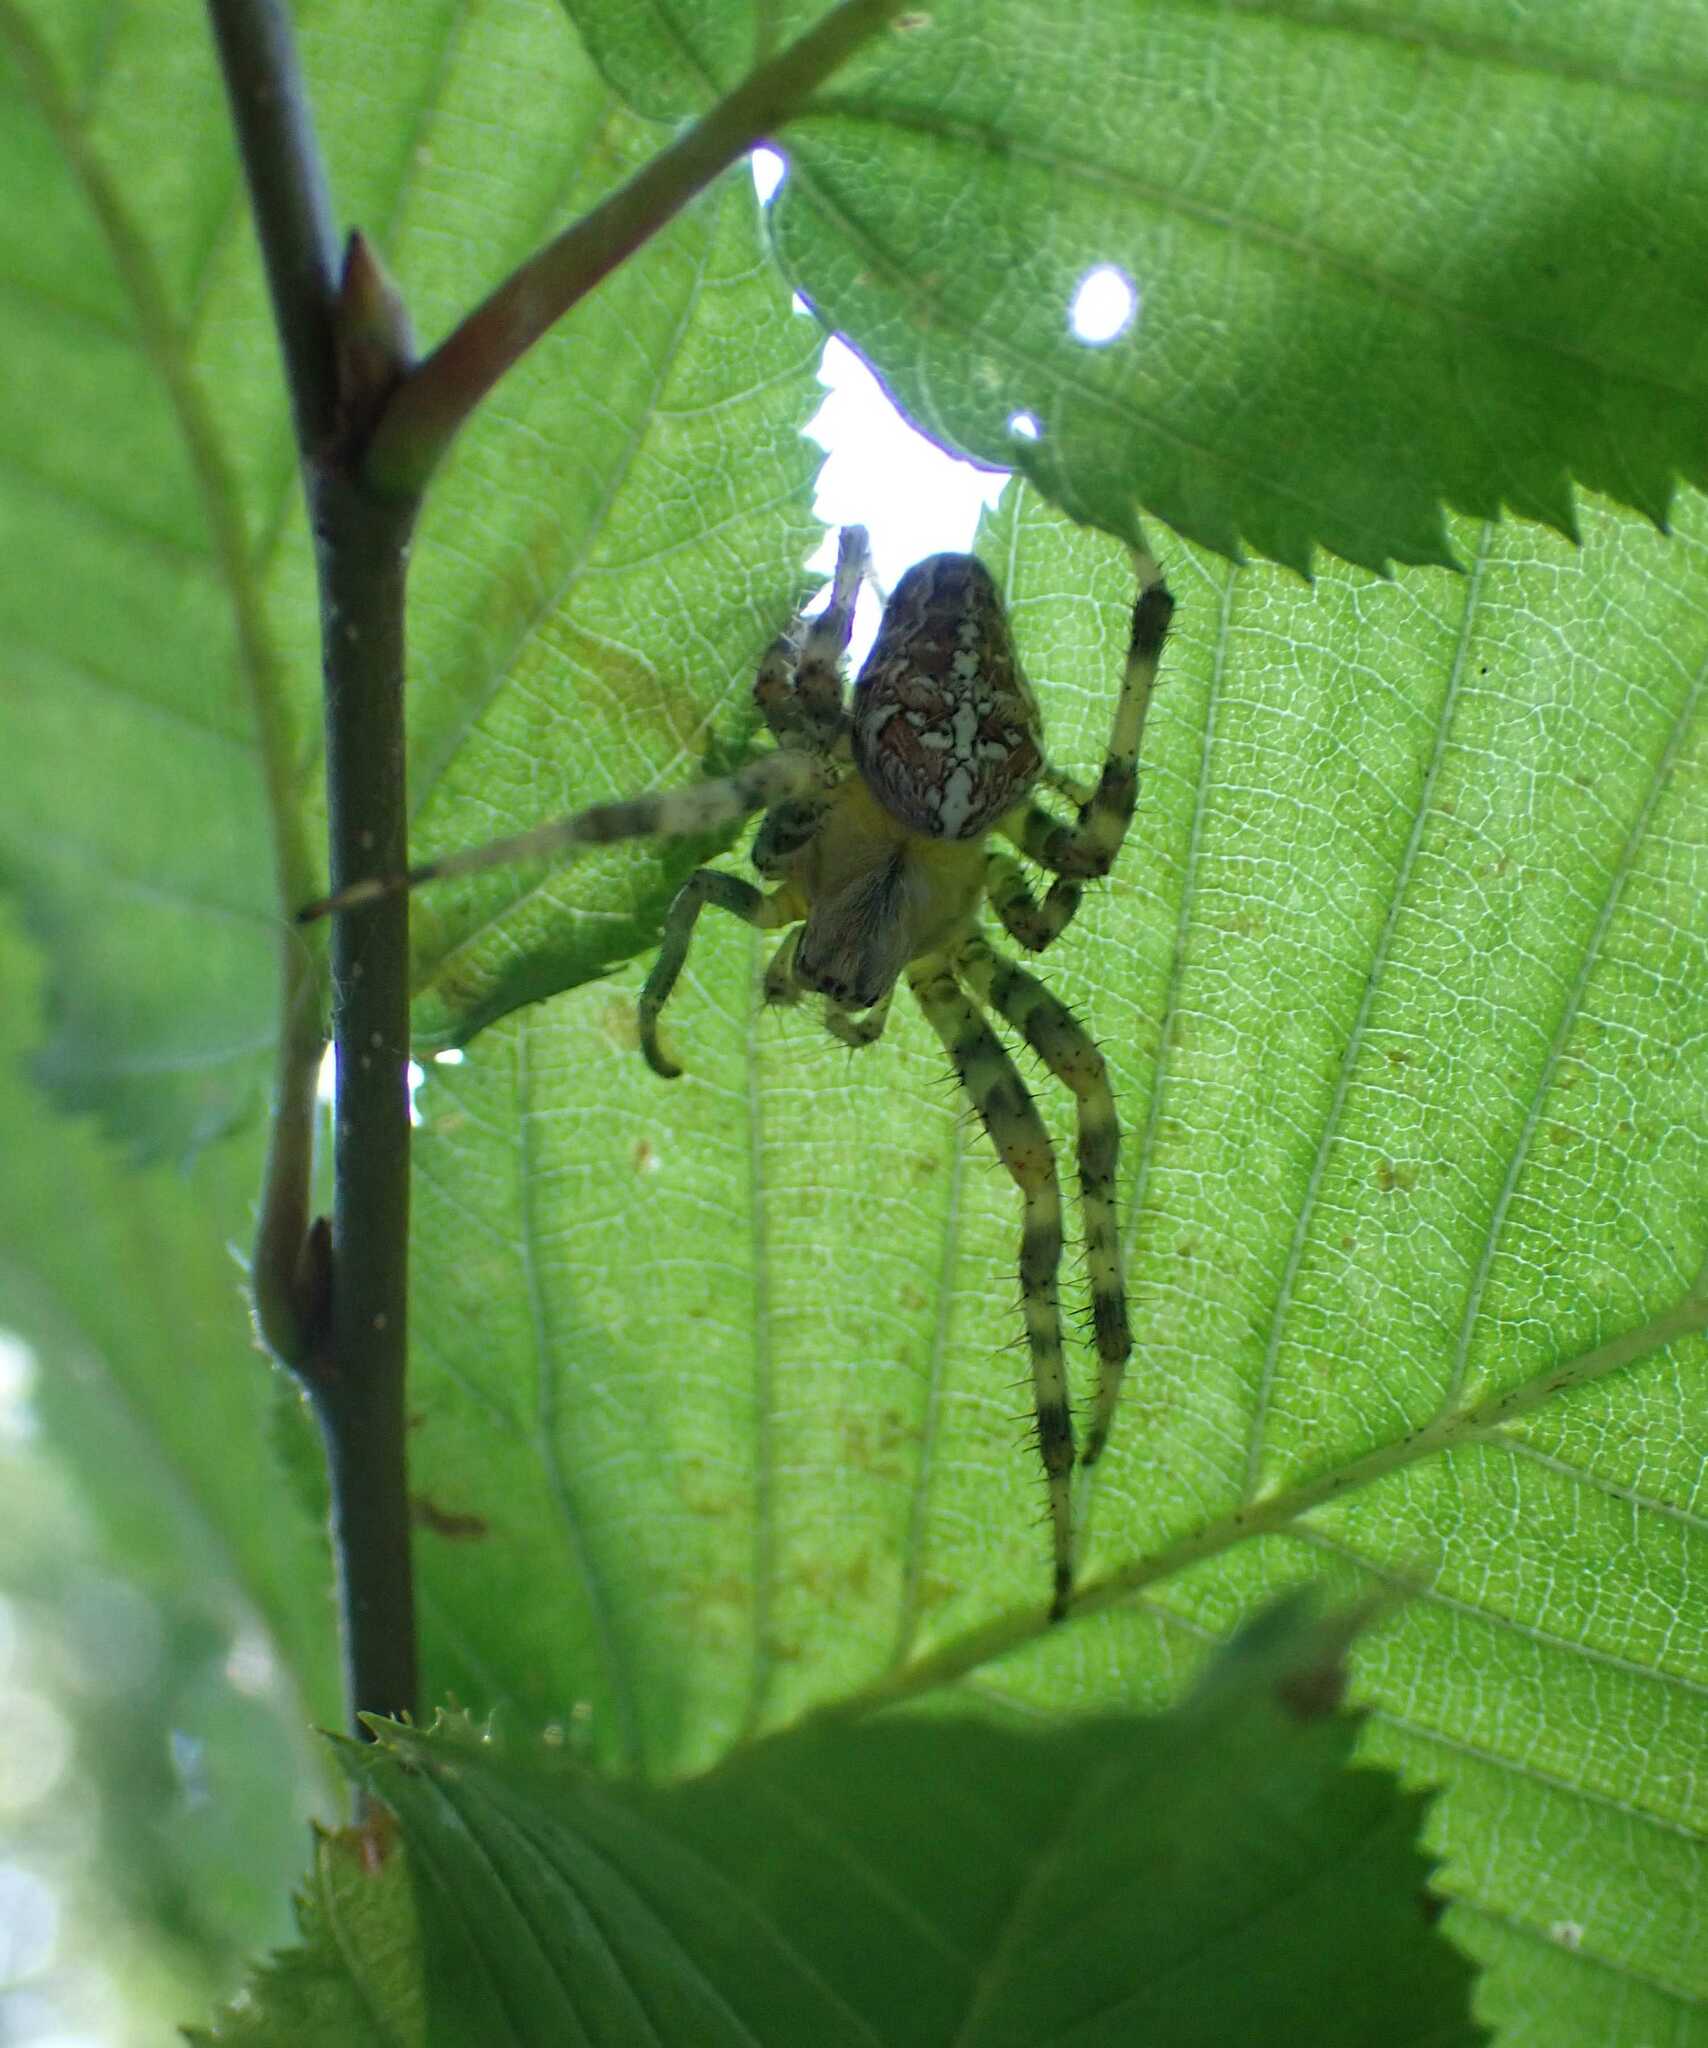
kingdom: Animalia
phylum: Arthropoda
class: Arachnida
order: Araneae
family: Araneidae
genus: Araneus
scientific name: Araneus diadematus
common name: Cross orbweaver
